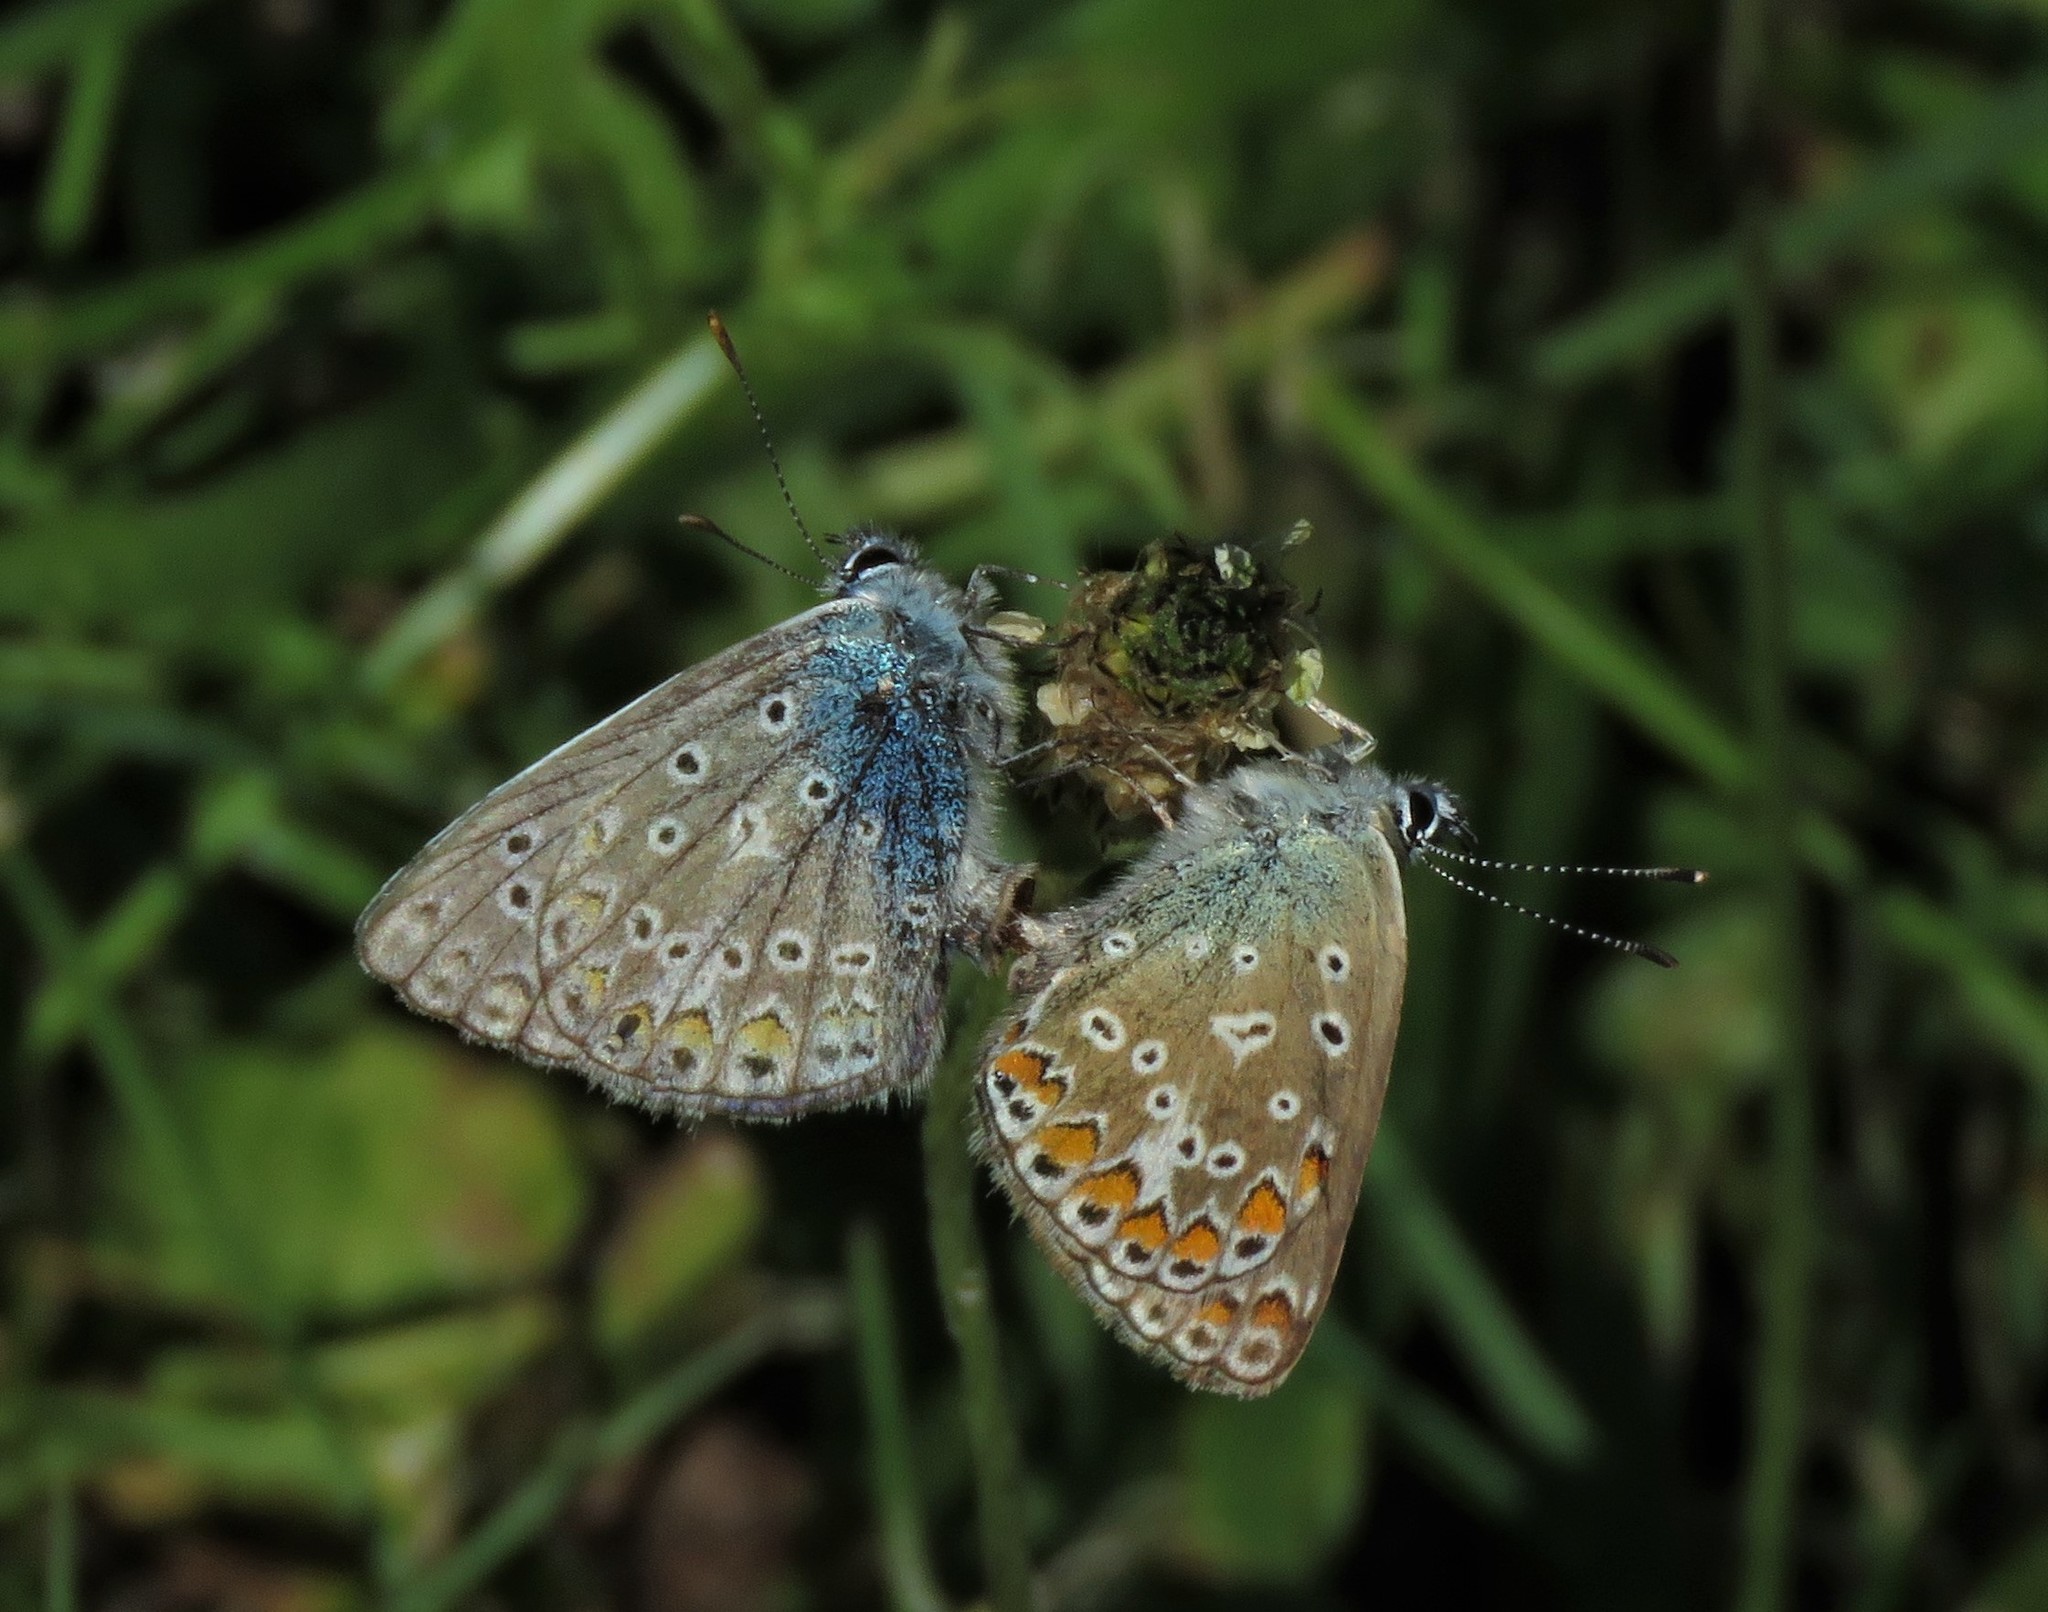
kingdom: Animalia
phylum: Arthropoda
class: Insecta
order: Lepidoptera
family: Lycaenidae
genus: Polyommatus
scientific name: Polyommatus icarus
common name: Common blue
